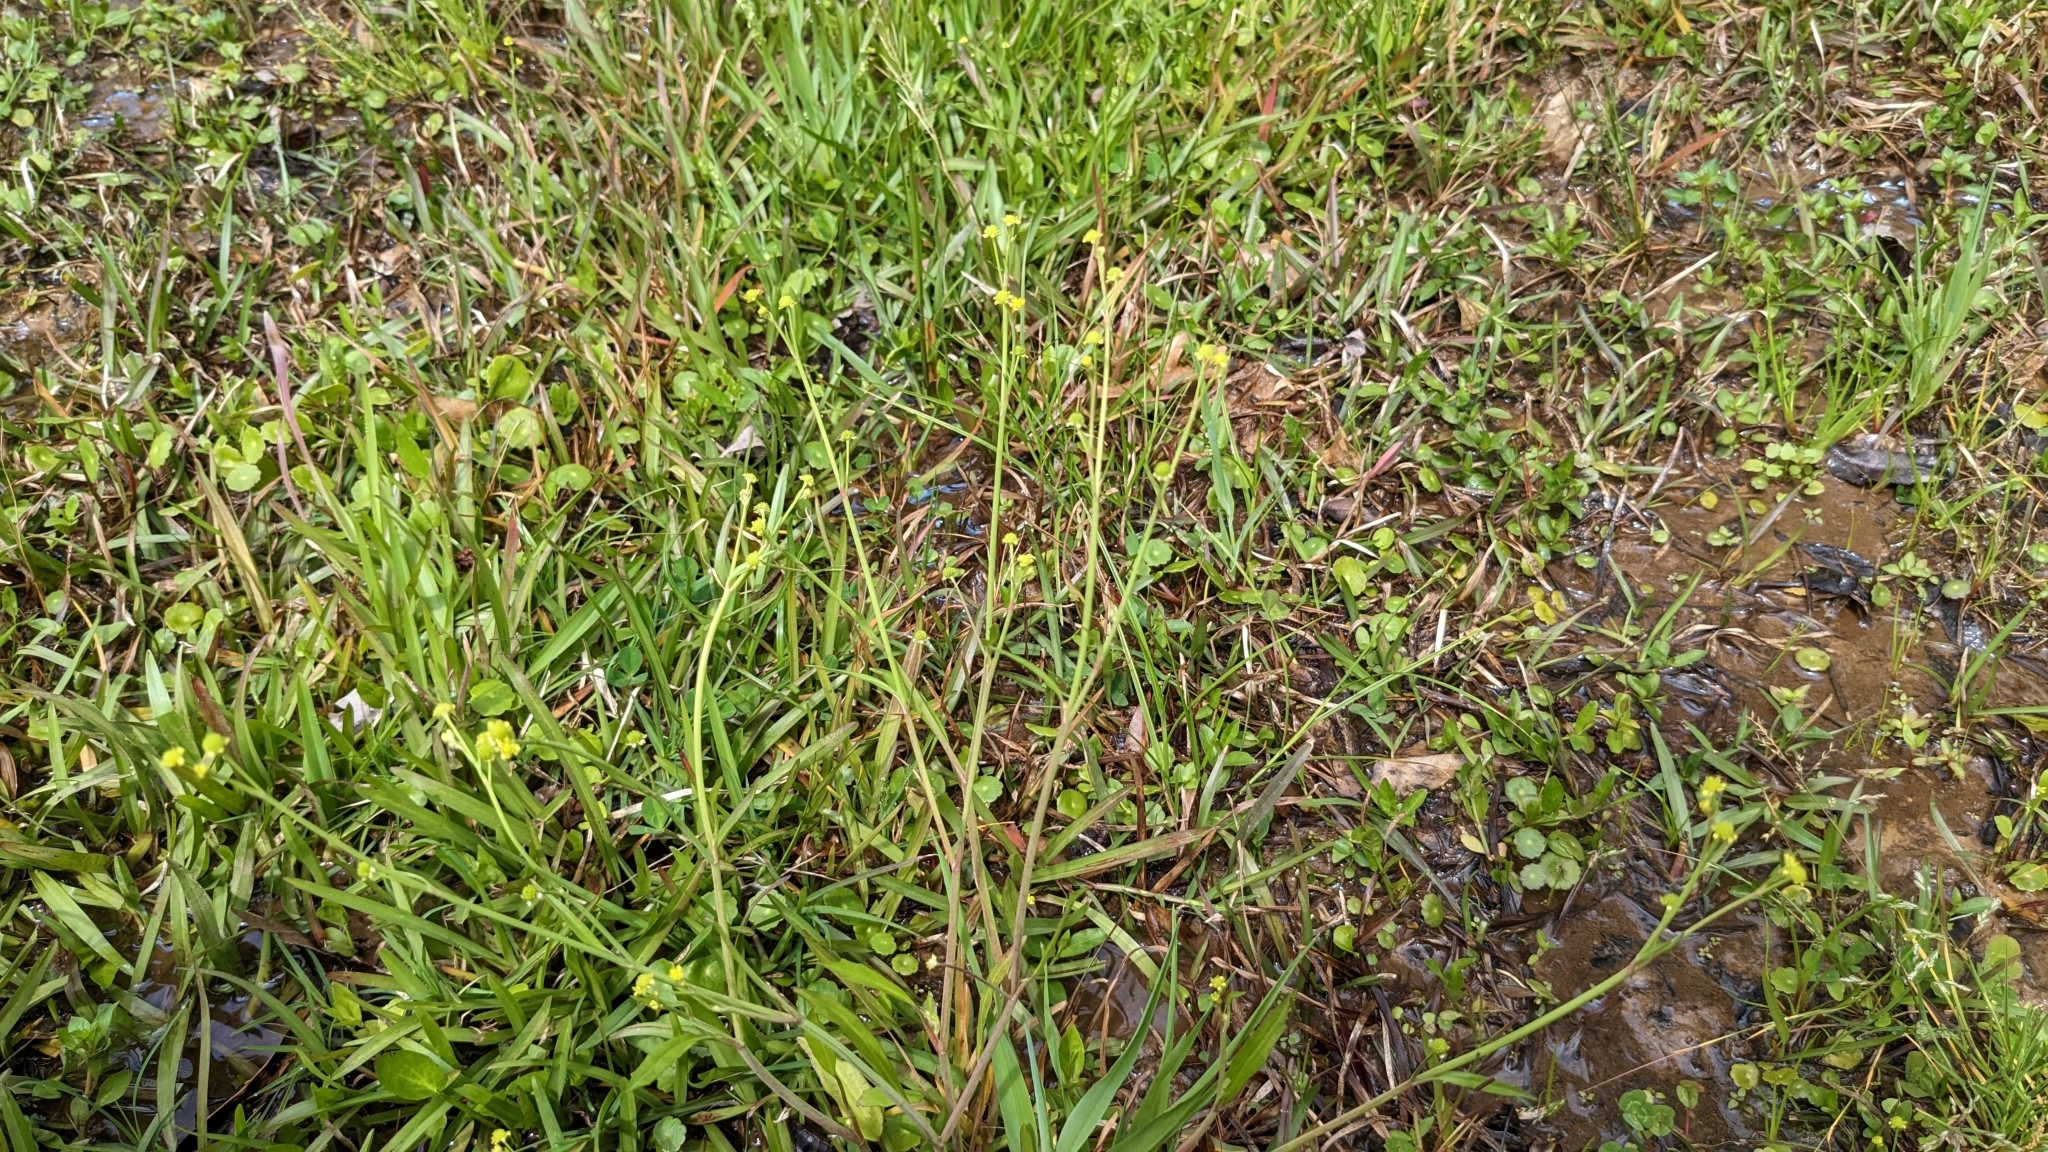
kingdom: Plantae
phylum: Tracheophyta
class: Magnoliopsida
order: Ranunculales
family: Ranunculaceae
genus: Ranunculus
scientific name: Ranunculus pusillus
